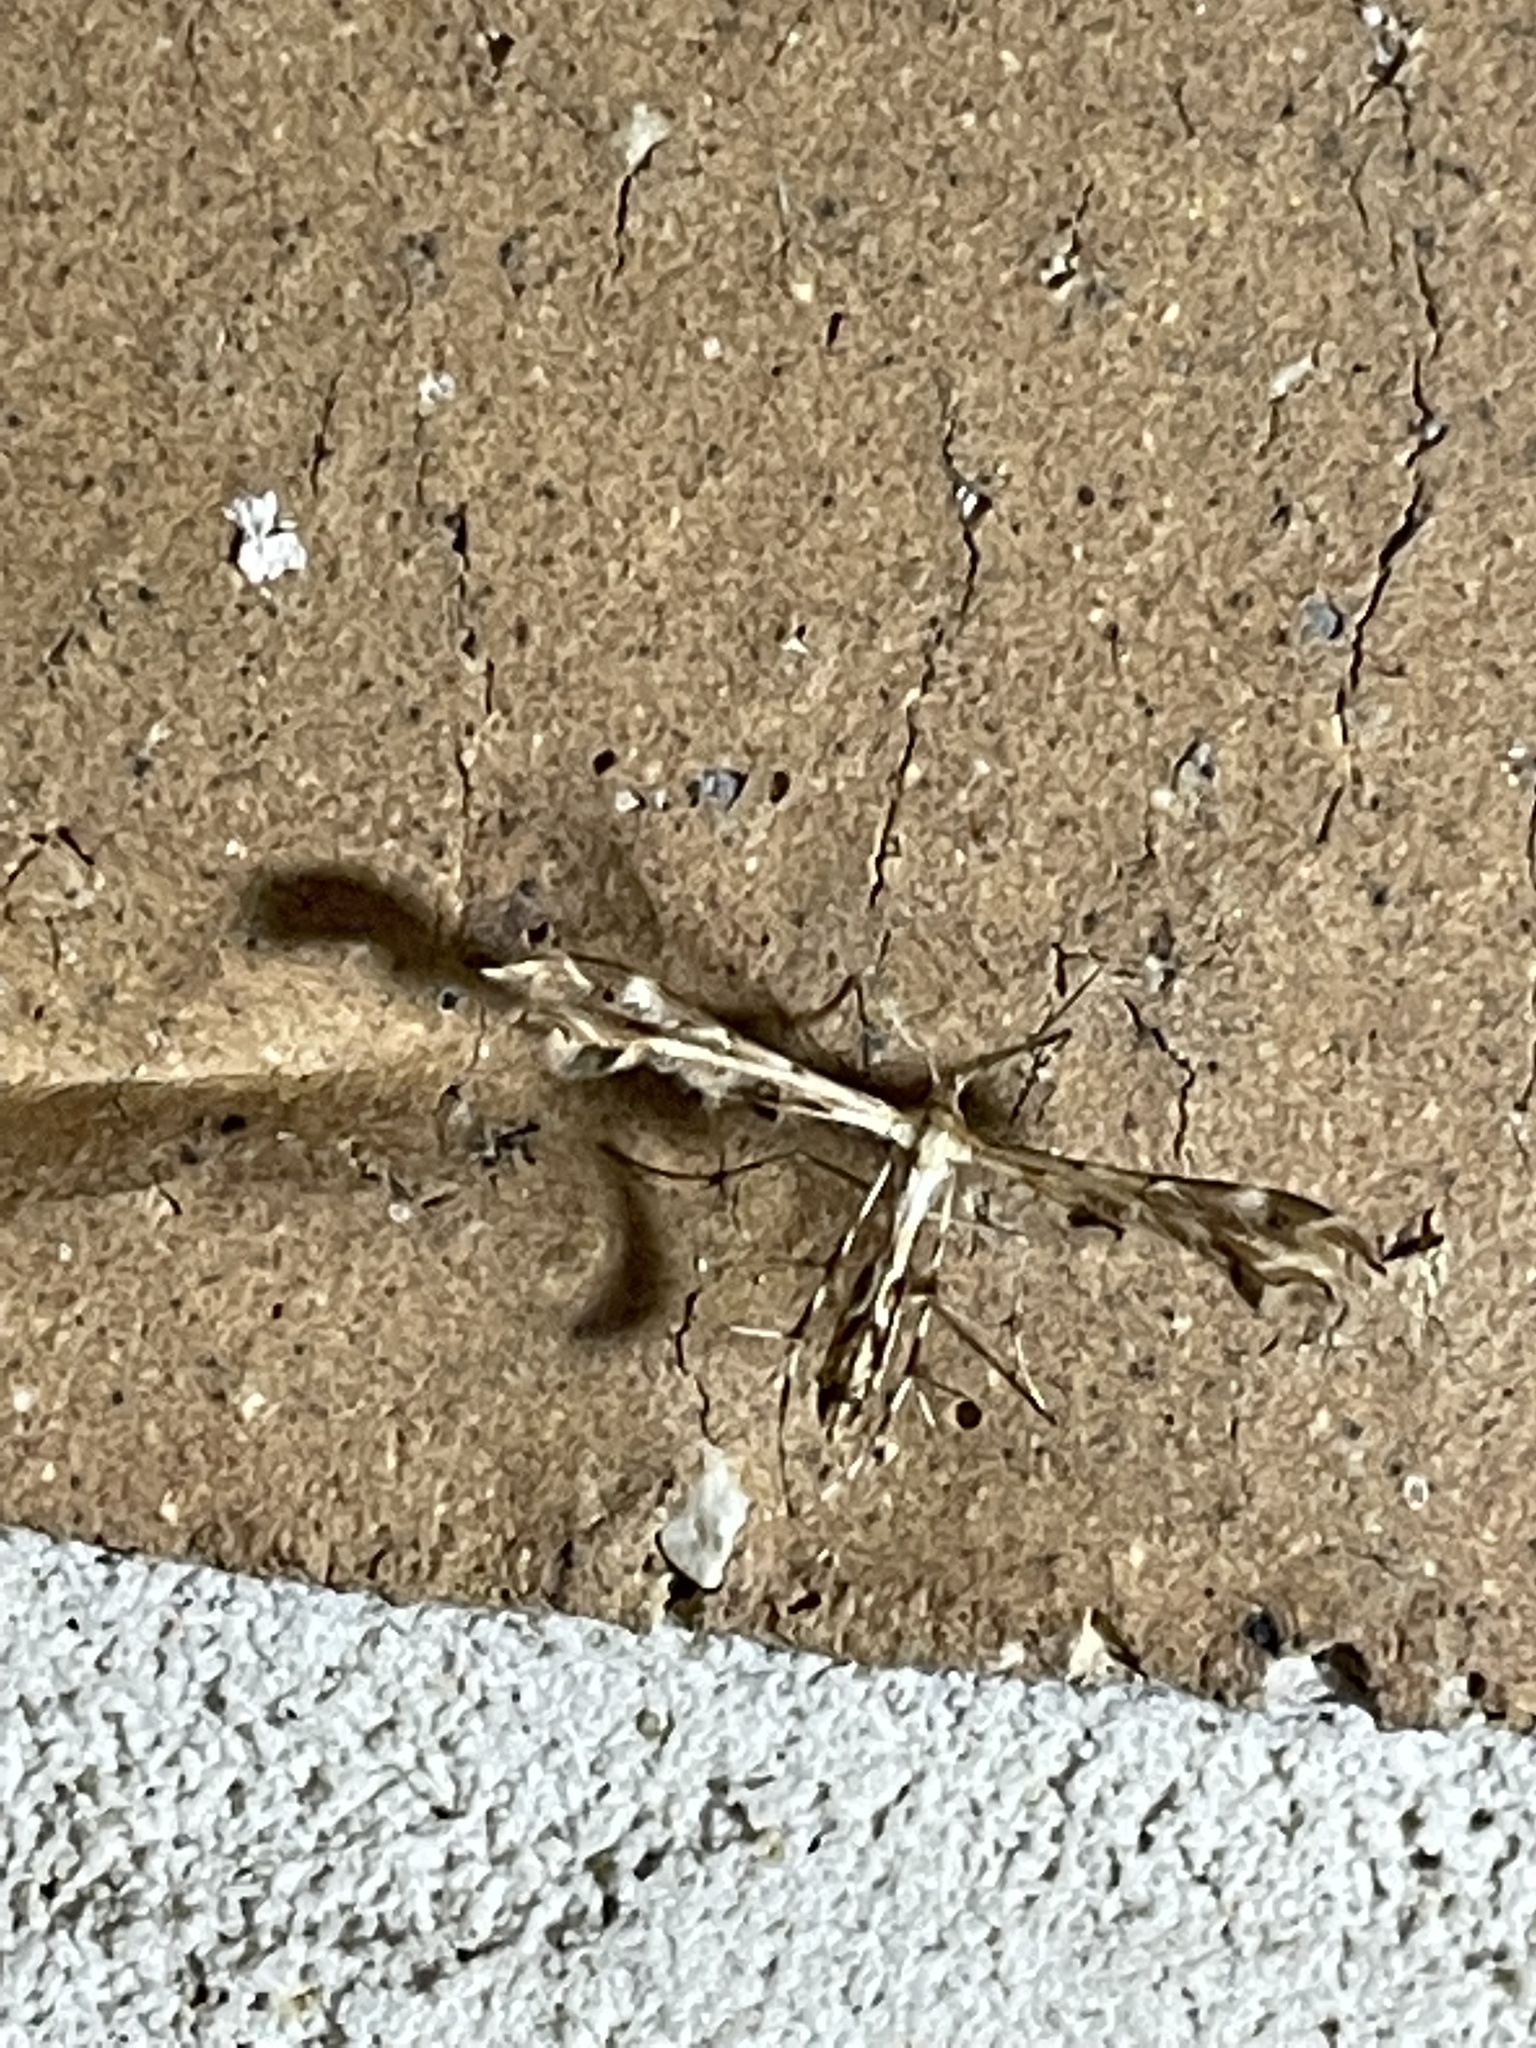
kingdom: Animalia
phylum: Arthropoda
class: Insecta
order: Lepidoptera
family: Pterophoridae
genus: Sphenarches
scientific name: Sphenarches anisodactylus
